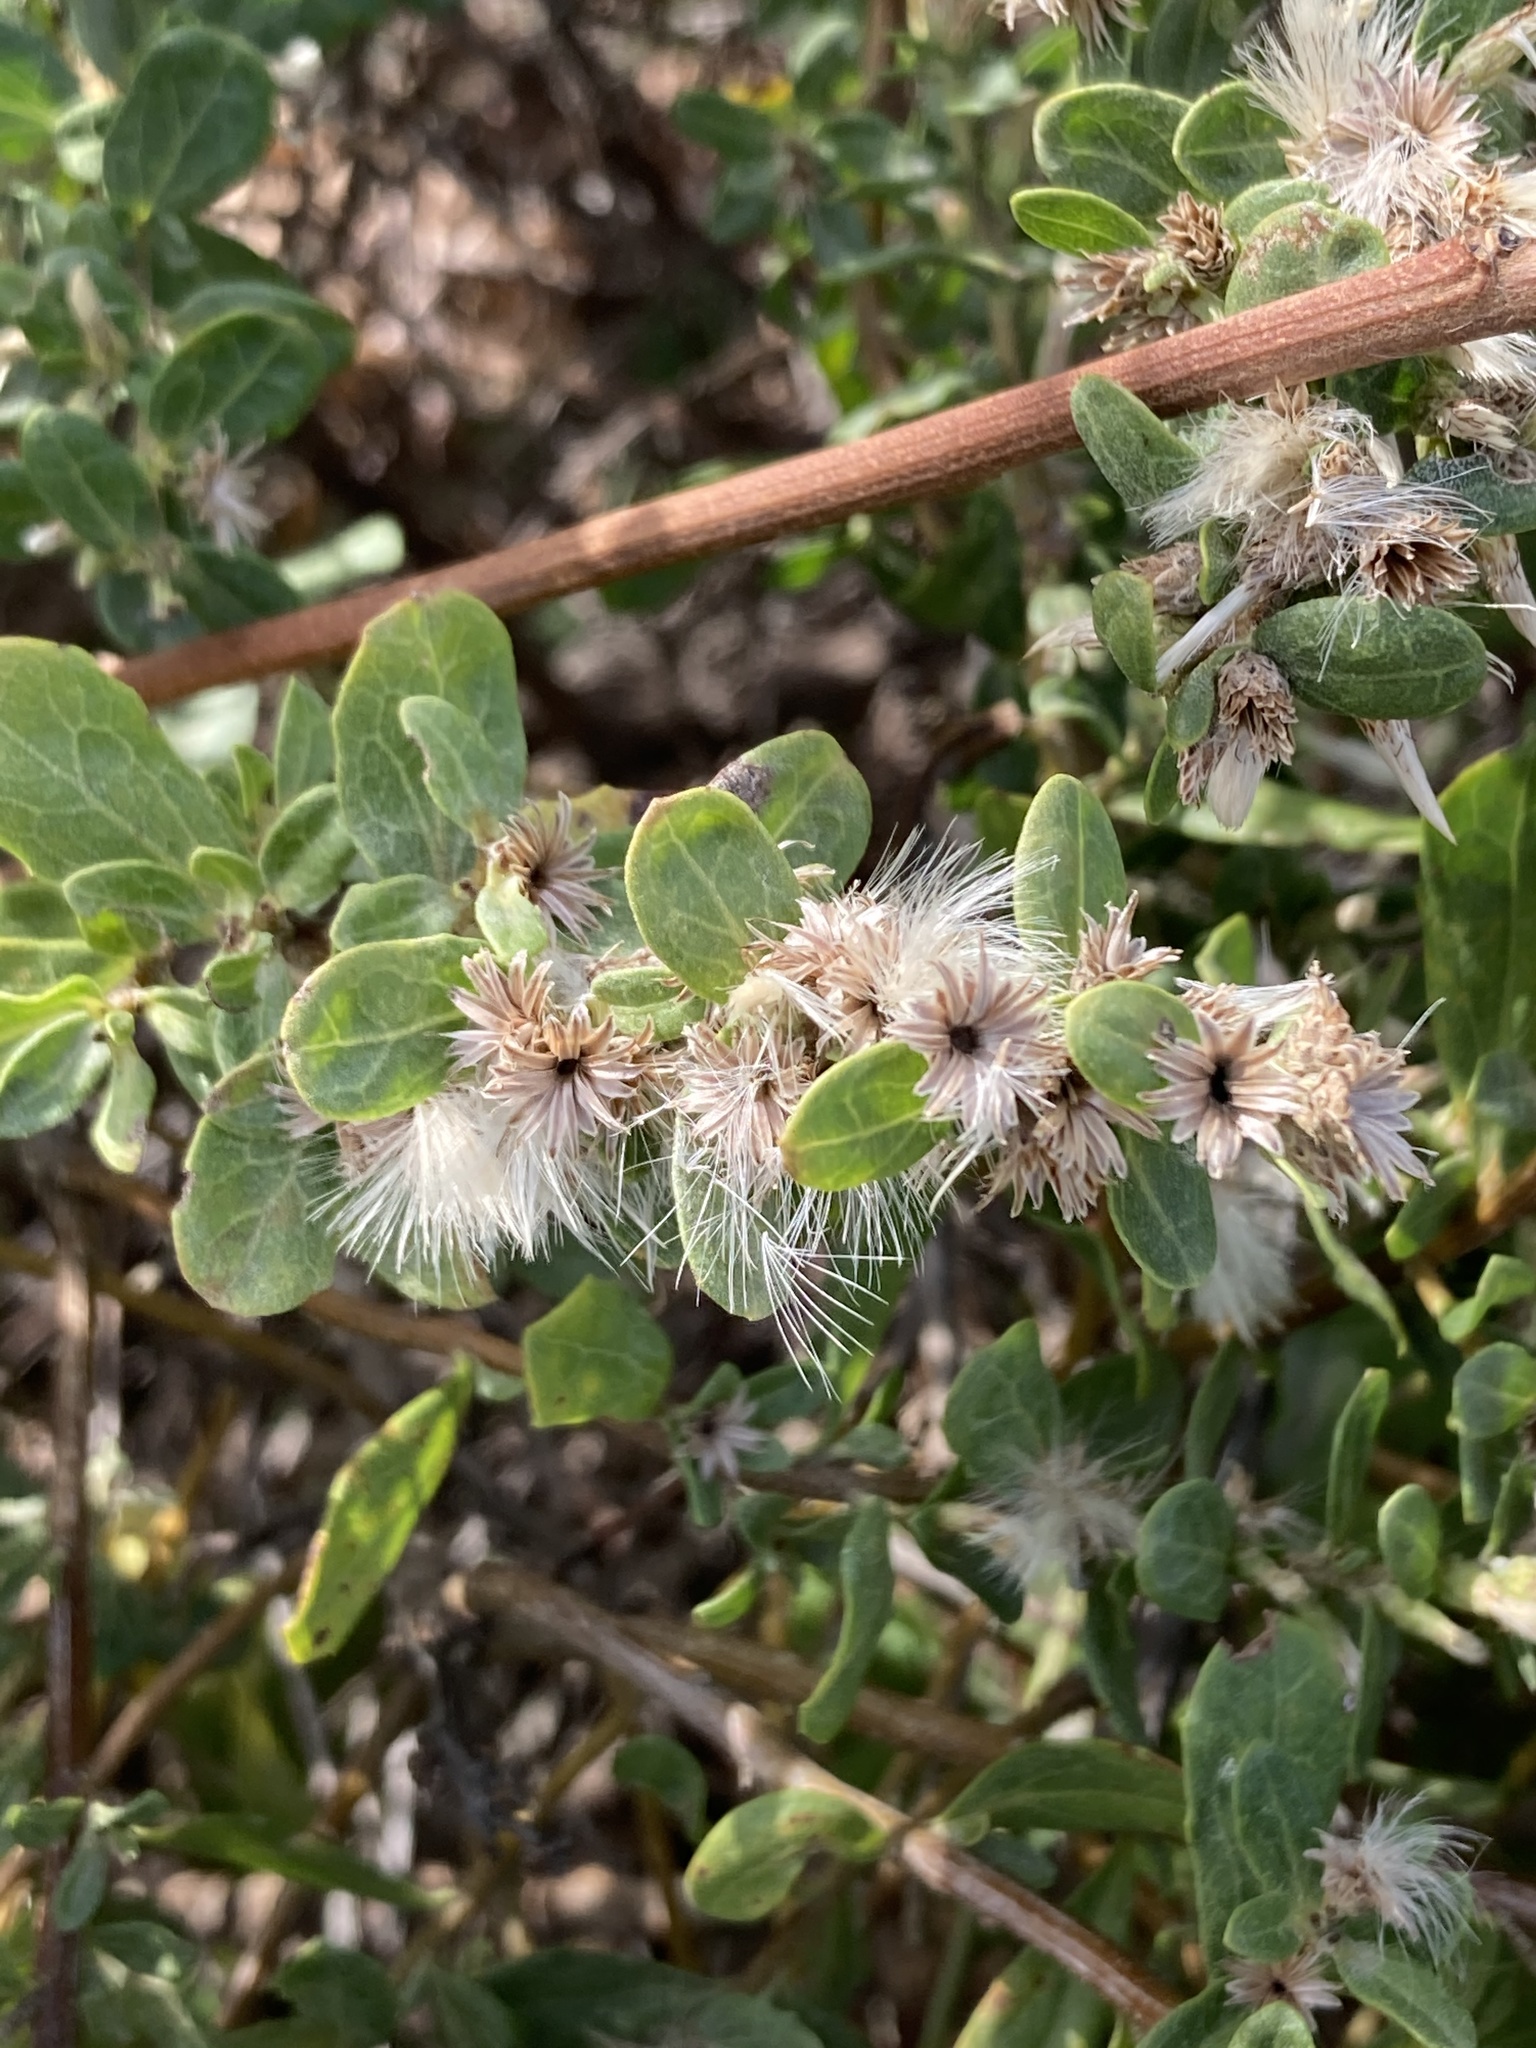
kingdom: Plantae
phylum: Tracheophyta
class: Magnoliopsida
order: Asterales
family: Asteraceae
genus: Baccharis
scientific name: Baccharis pilularis
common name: Coyotebrush
